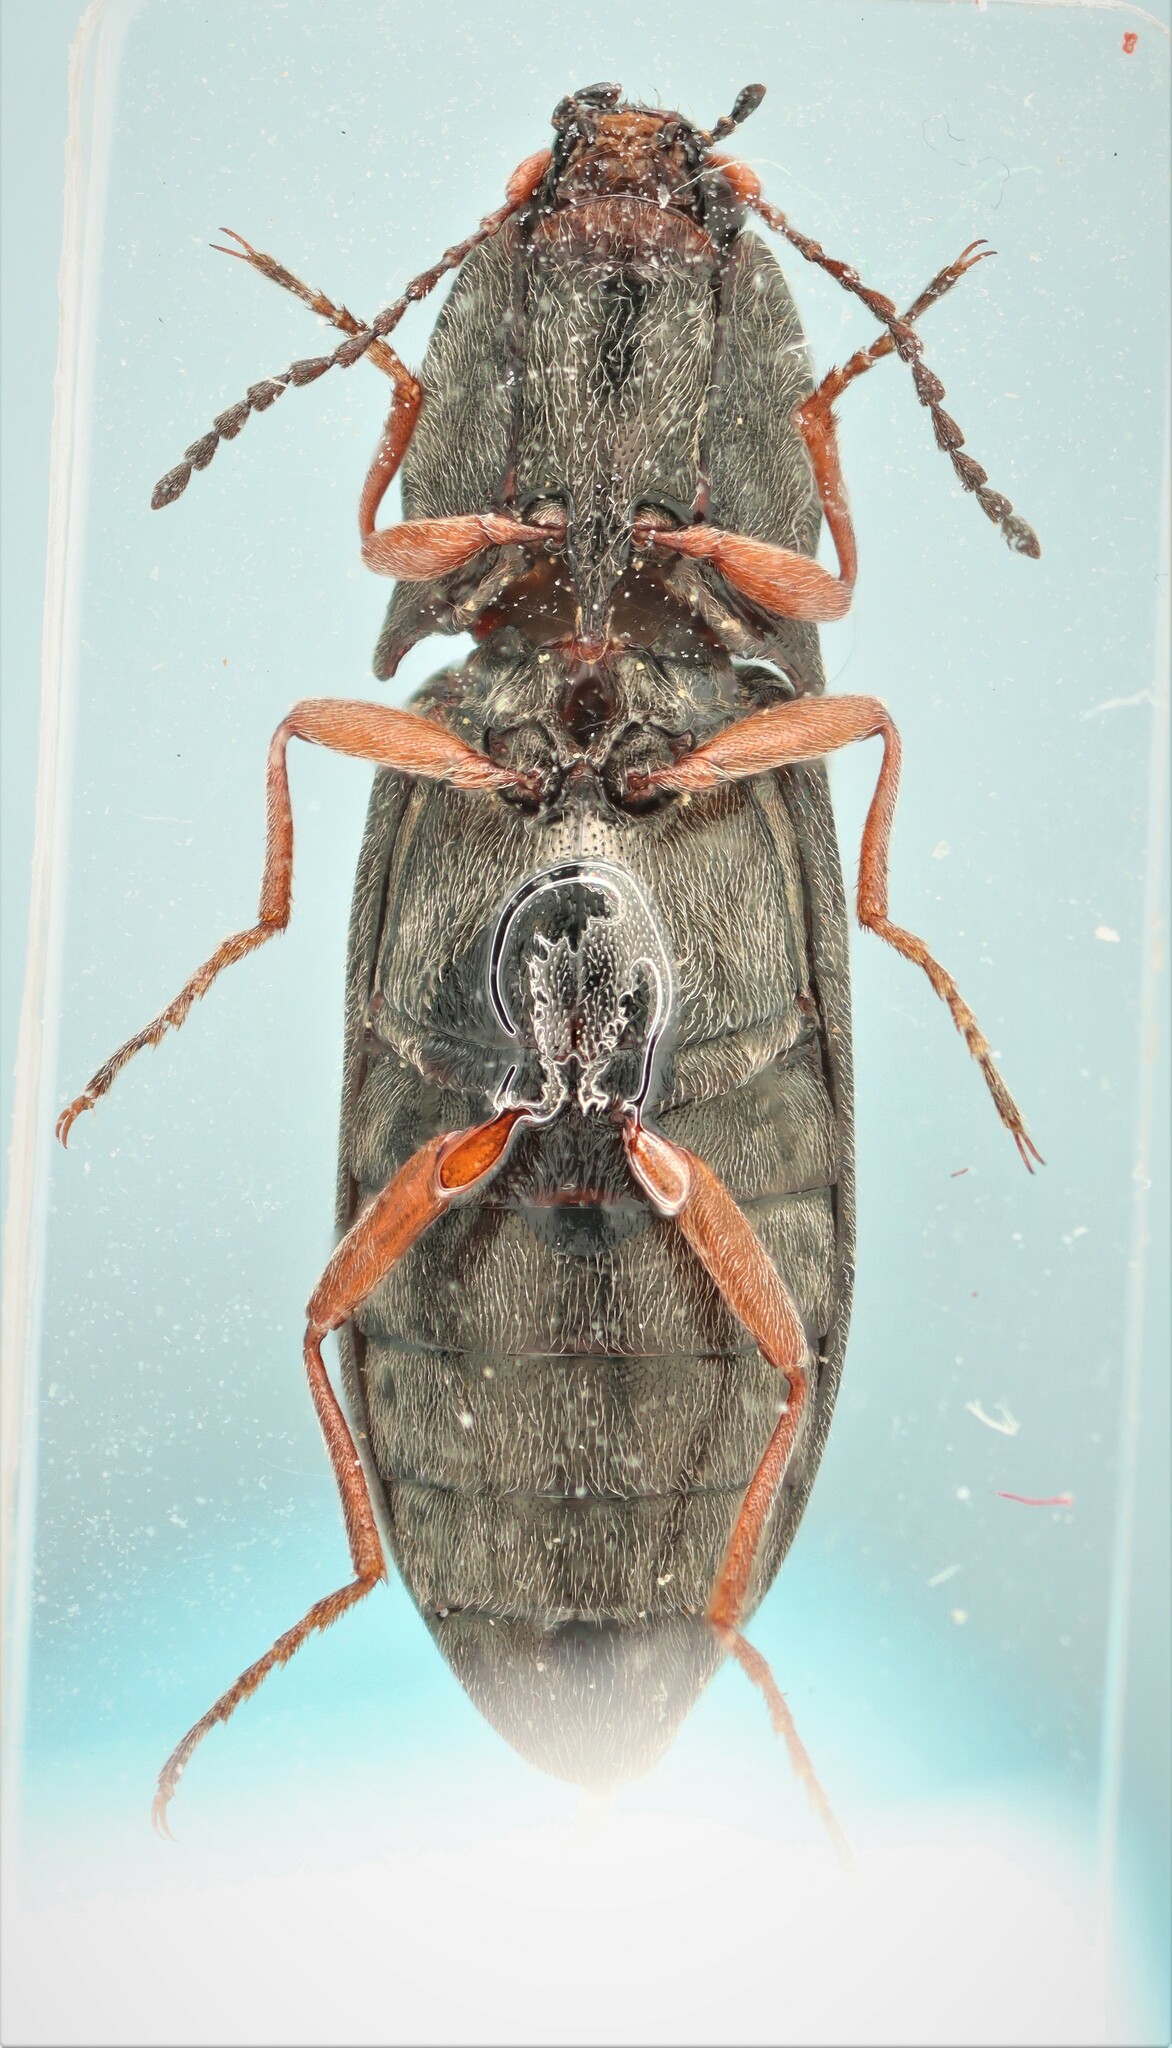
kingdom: Animalia
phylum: Arthropoda
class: Insecta
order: Coleoptera
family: Elateridae
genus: Setasomus
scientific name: Setasomus nitidulus
